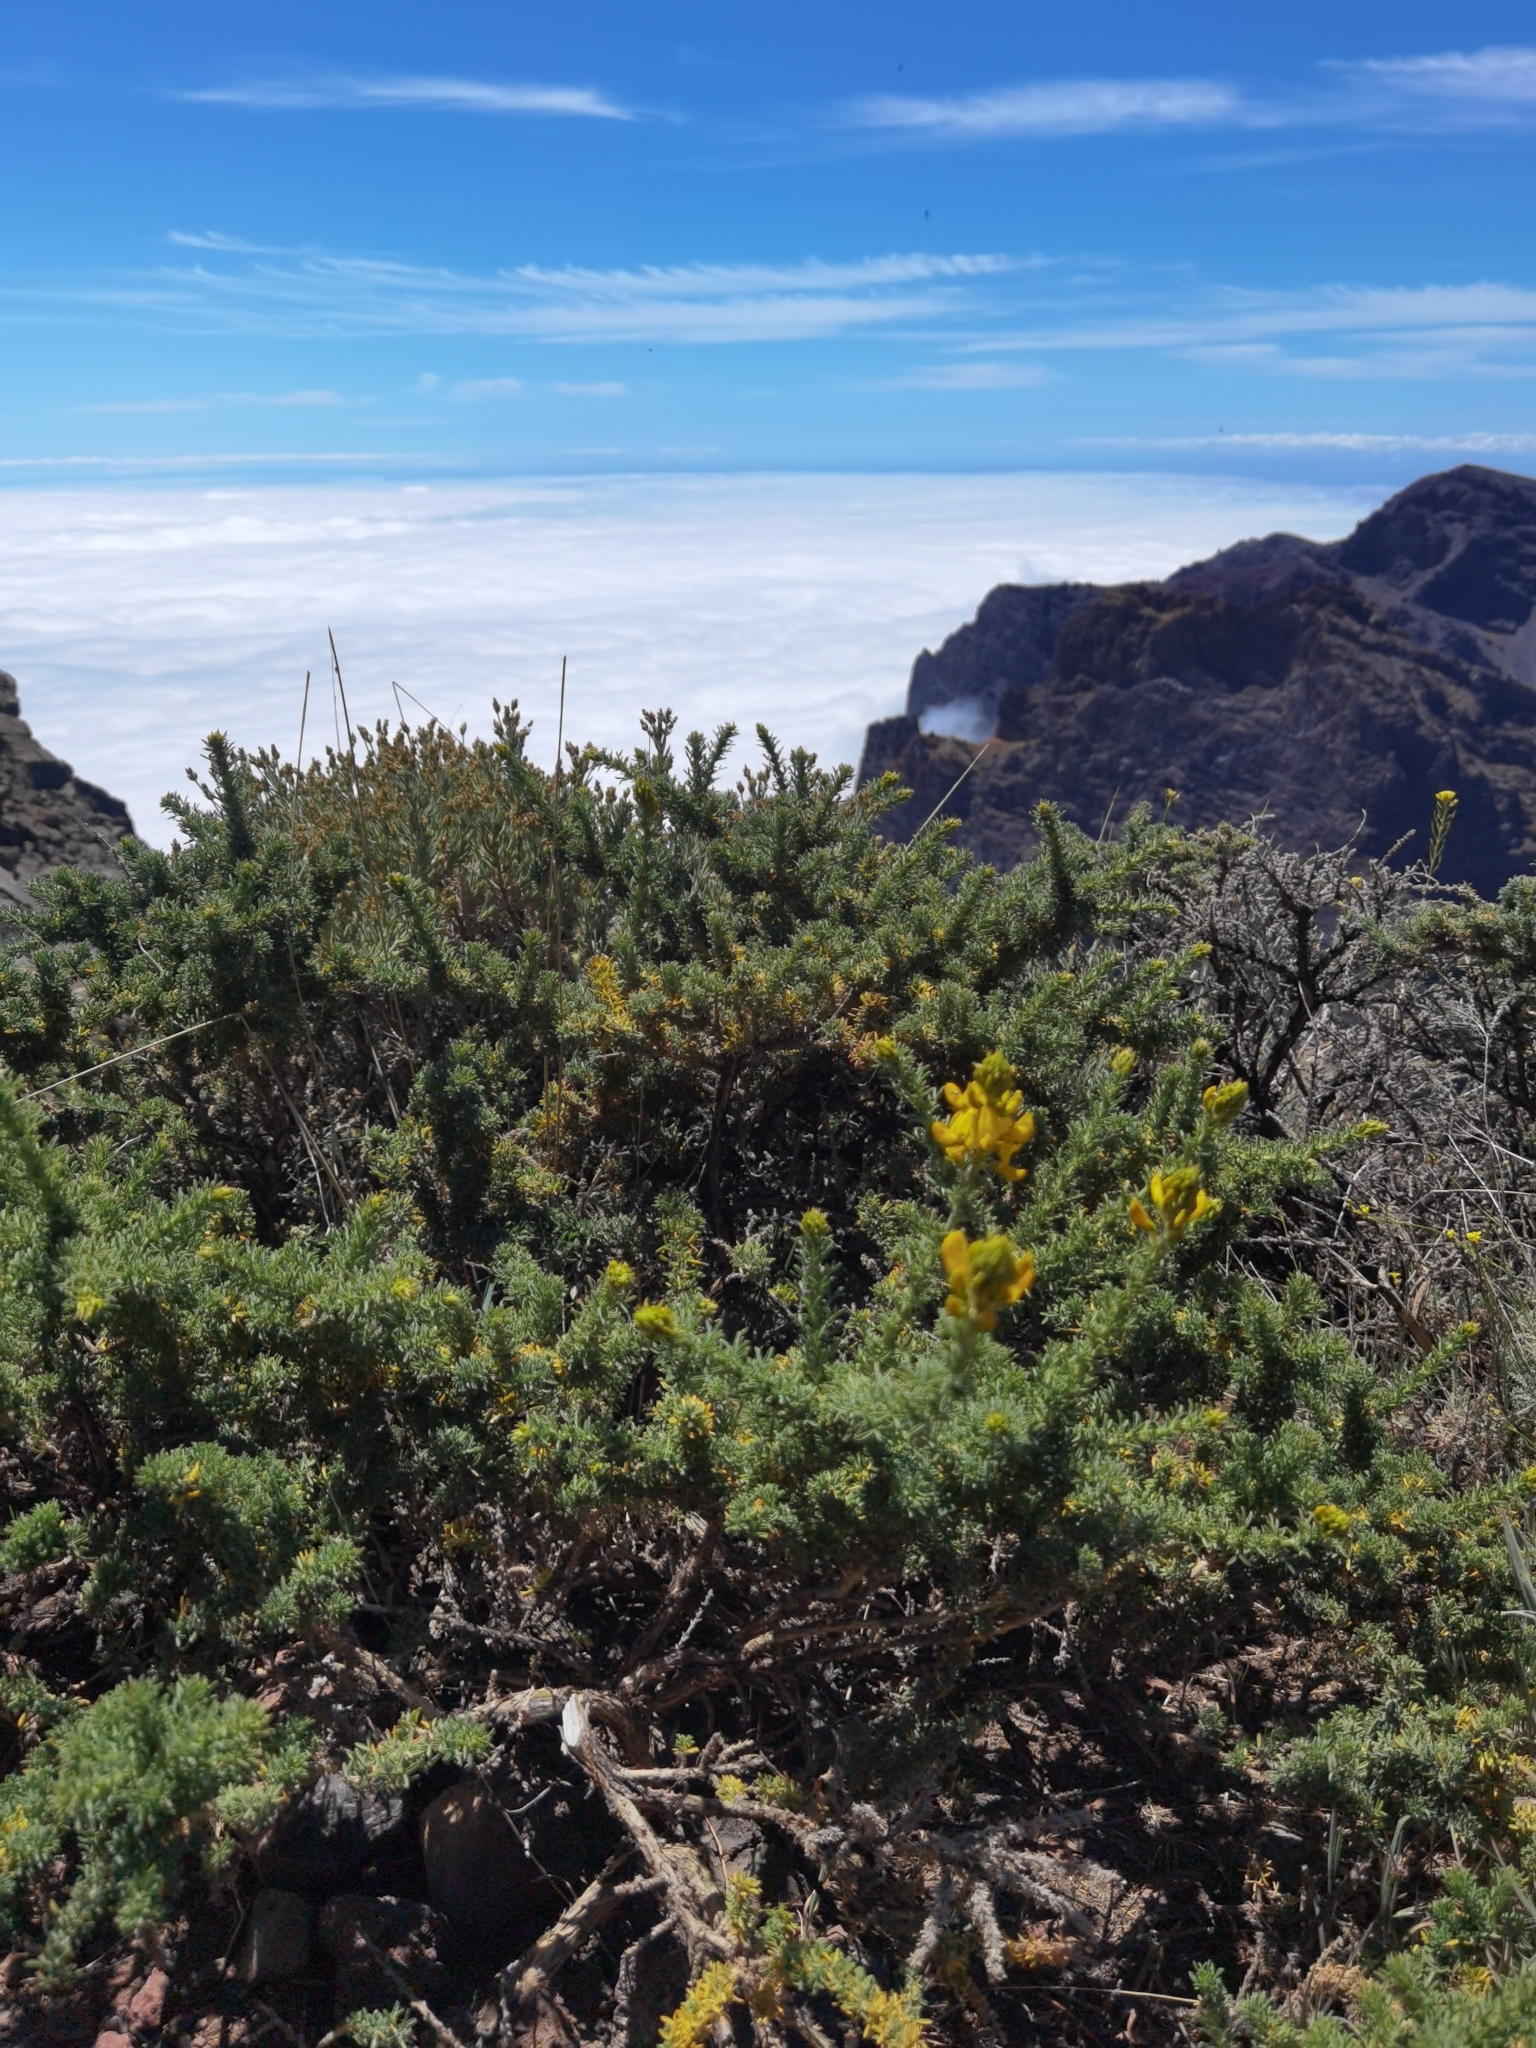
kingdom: Plantae
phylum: Tracheophyta
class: Magnoliopsida
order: Fabales
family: Fabaceae
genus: Adenocarpus
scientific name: Adenocarpus viscosus
